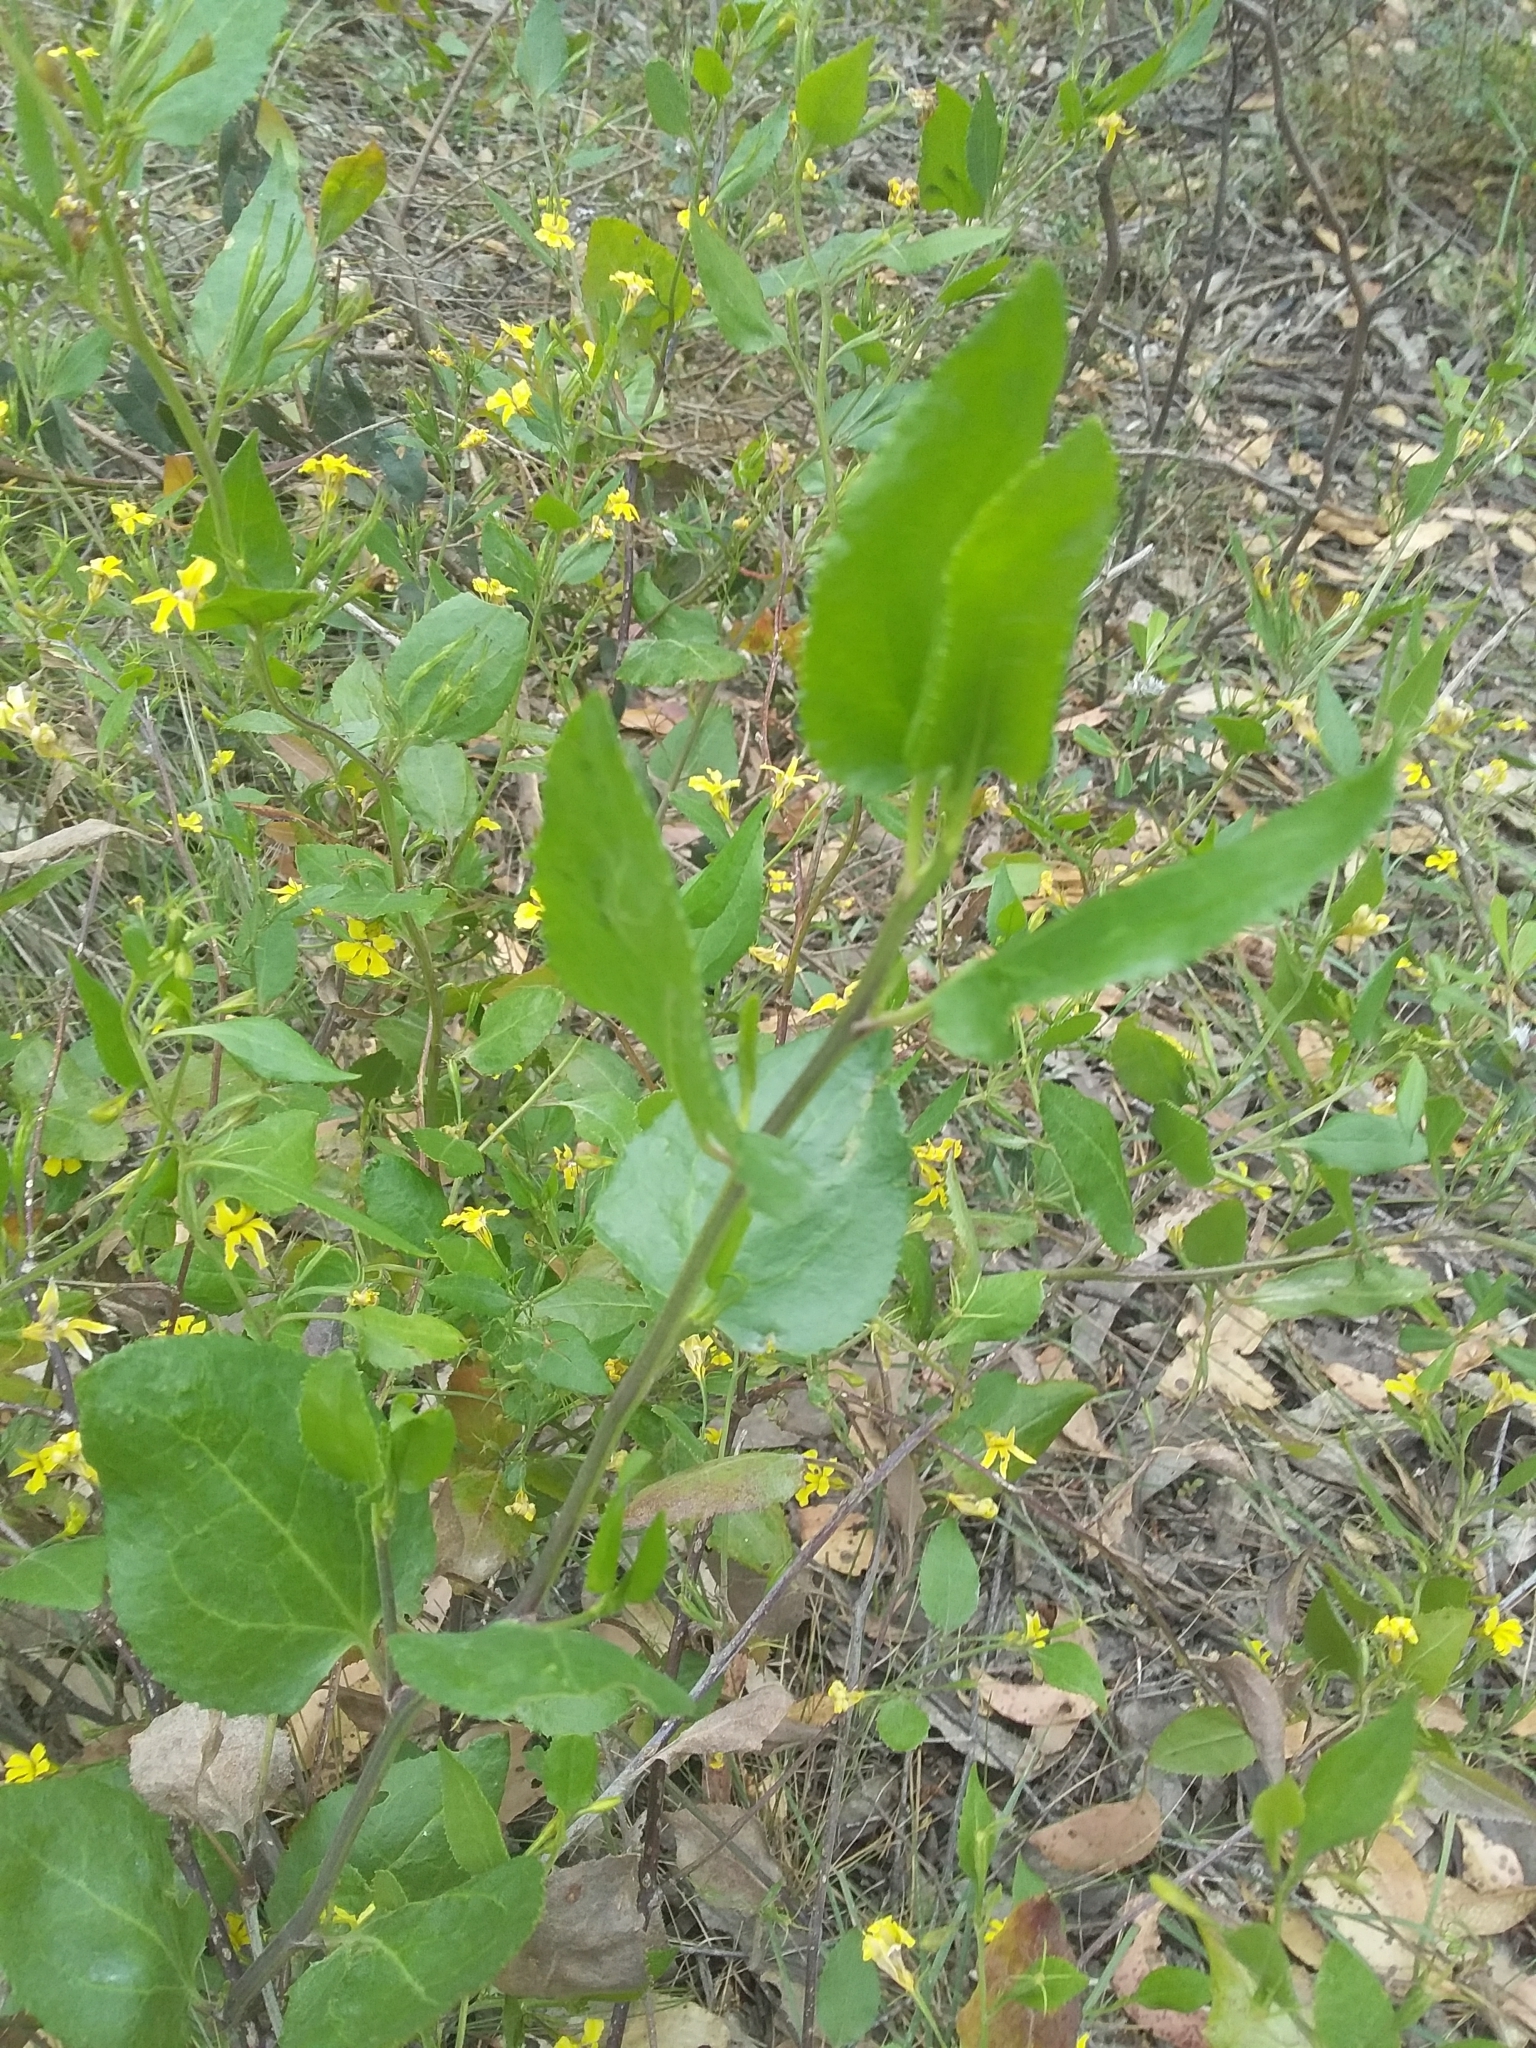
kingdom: Plantae
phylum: Tracheophyta
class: Magnoliopsida
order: Asterales
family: Goodeniaceae
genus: Goodenia
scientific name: Goodenia ovata
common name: Hop goodenia
